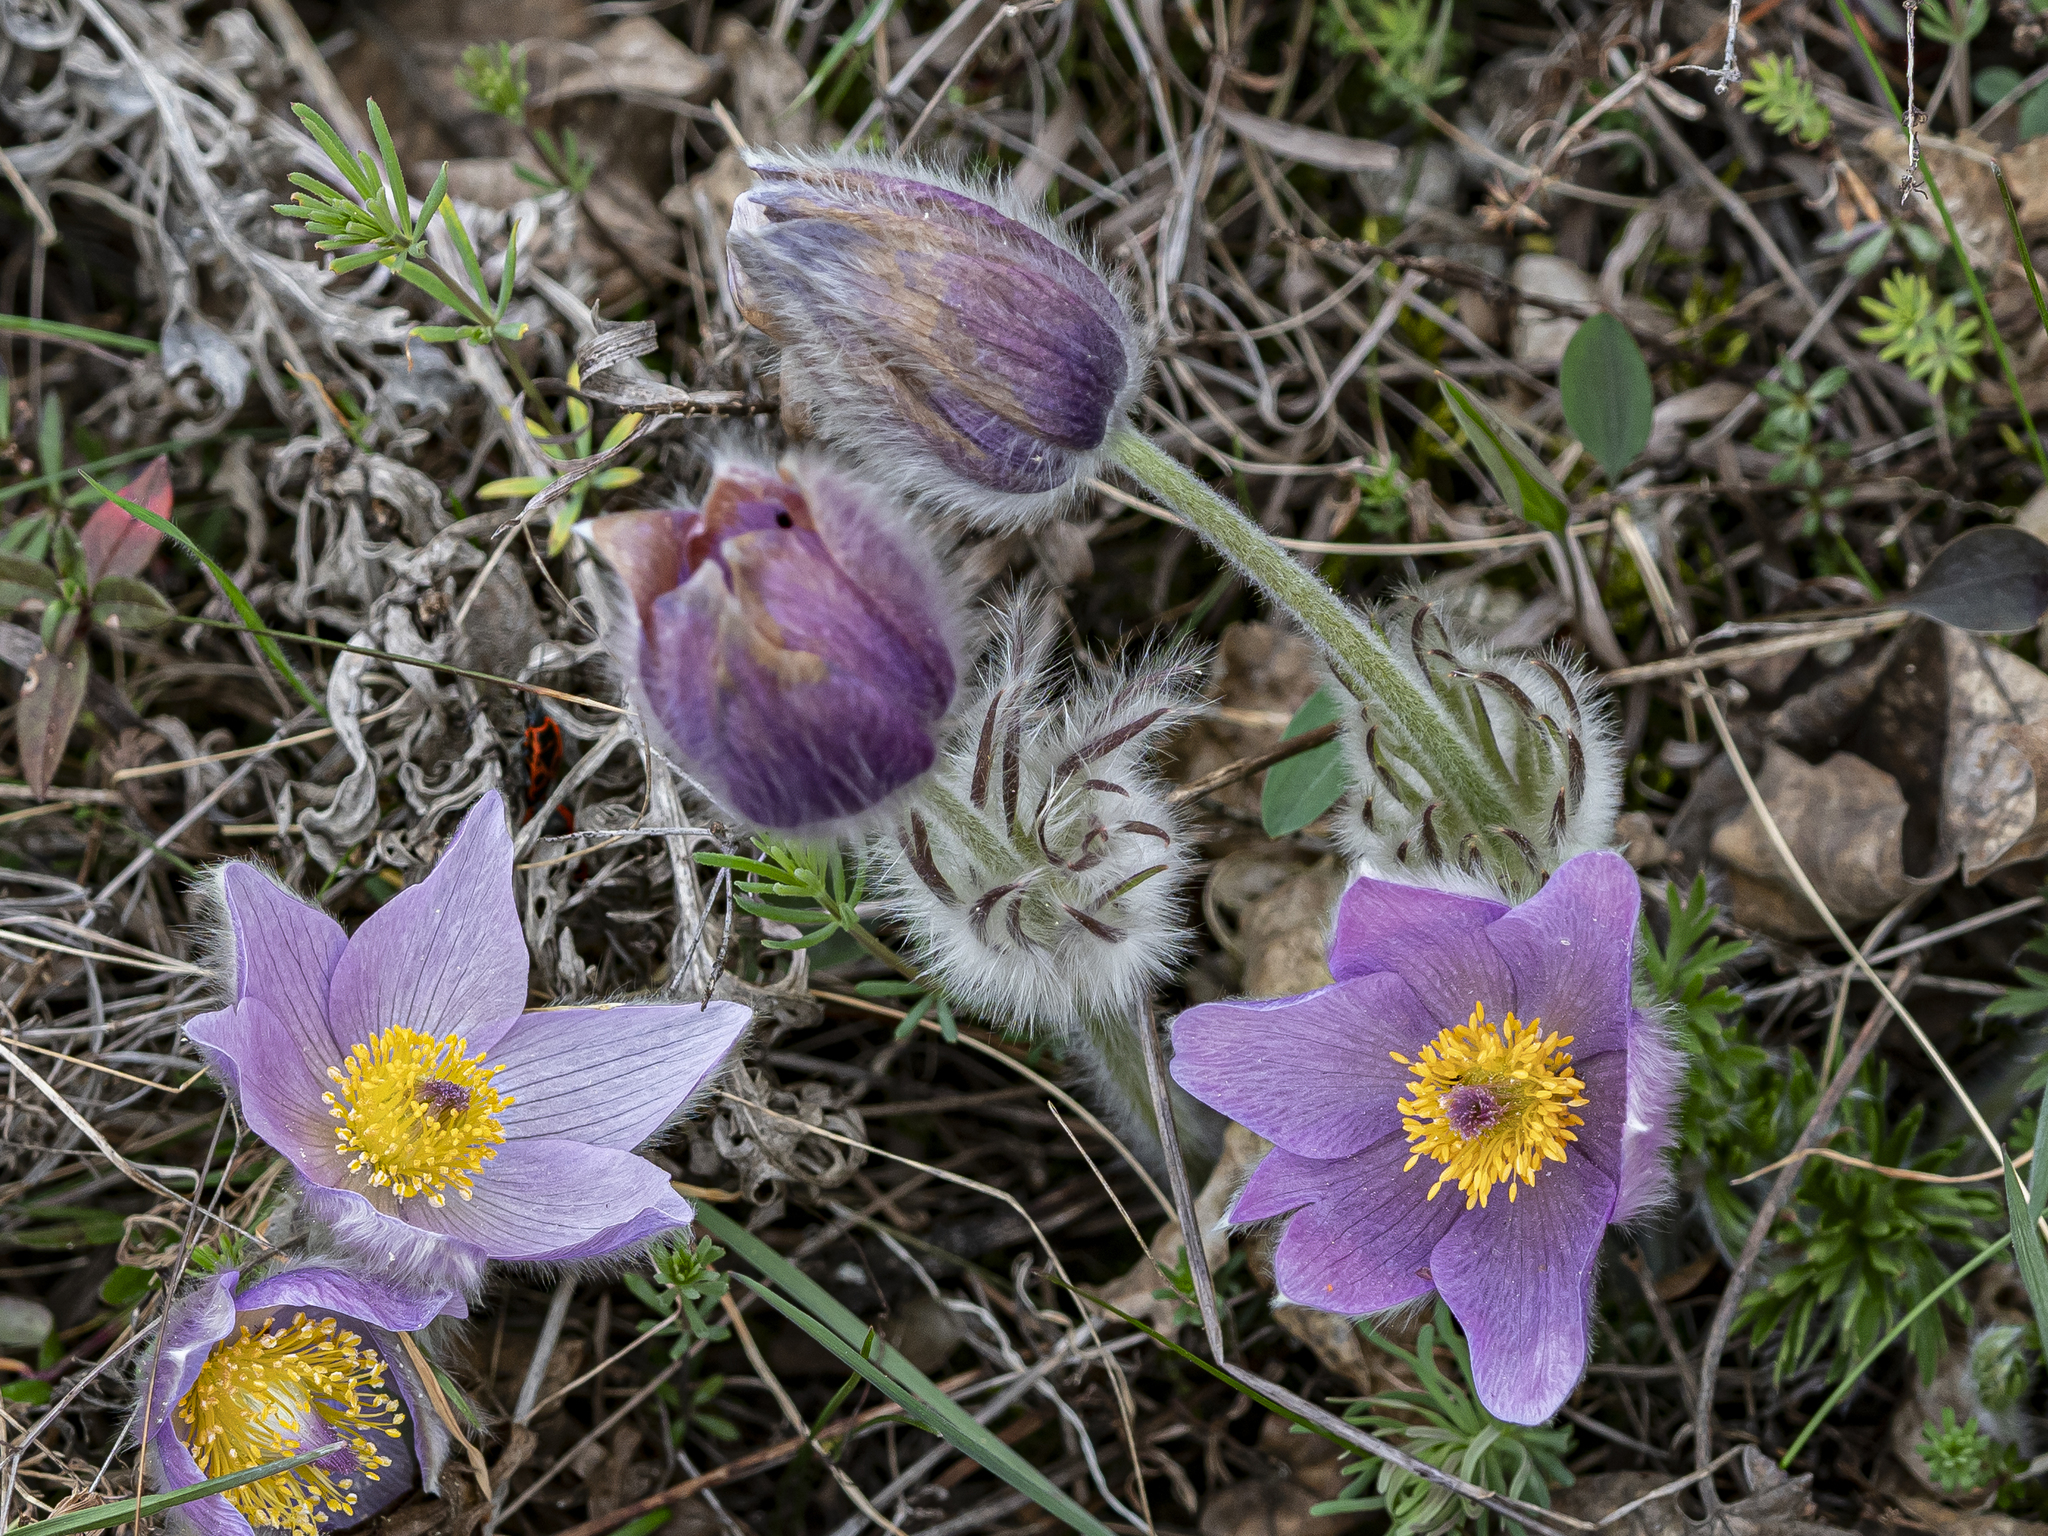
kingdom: Plantae
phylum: Tracheophyta
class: Magnoliopsida
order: Ranunculales
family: Ranunculaceae
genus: Pulsatilla
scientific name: Pulsatilla grandis
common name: Greater pasque flower
